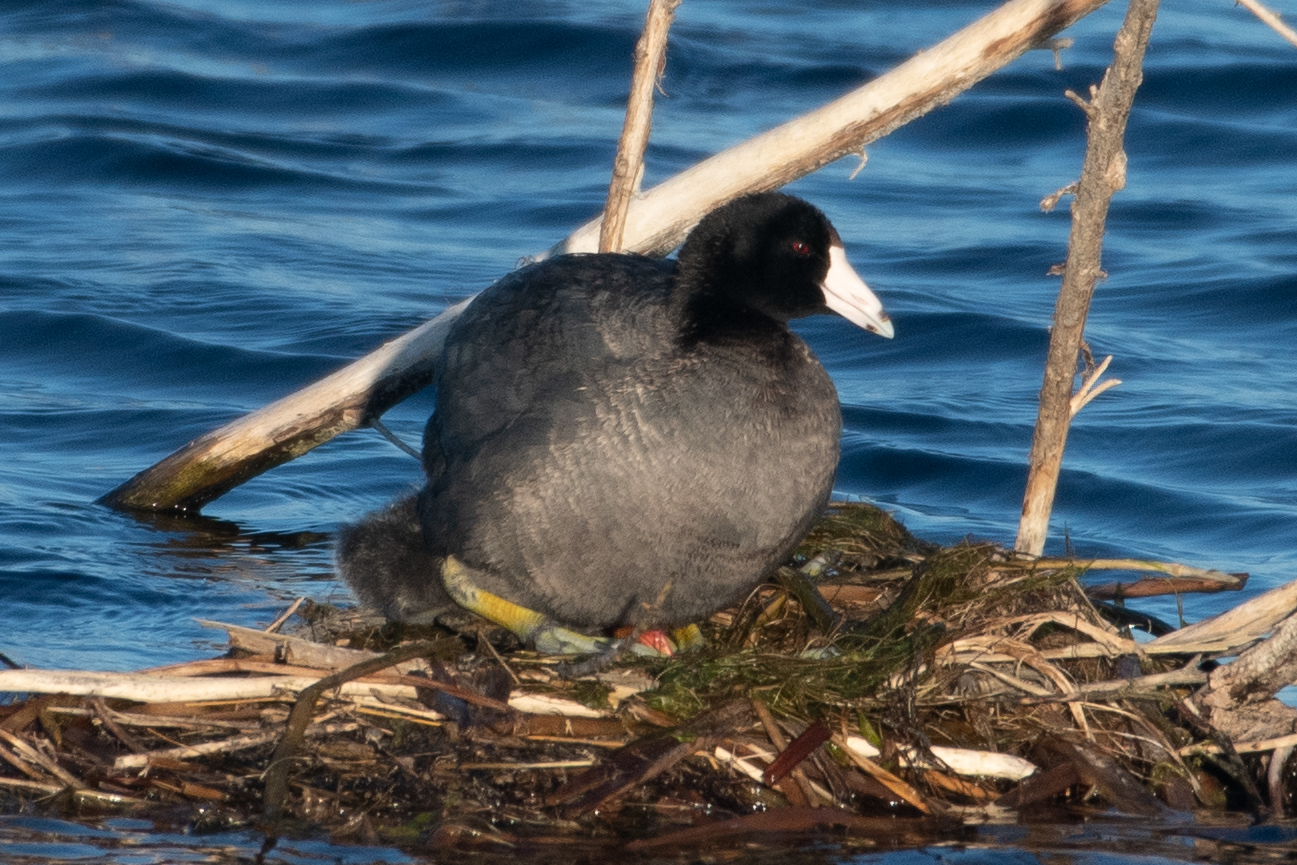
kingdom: Animalia
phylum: Chordata
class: Aves
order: Gruiformes
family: Rallidae
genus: Fulica
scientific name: Fulica americana
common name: American coot
